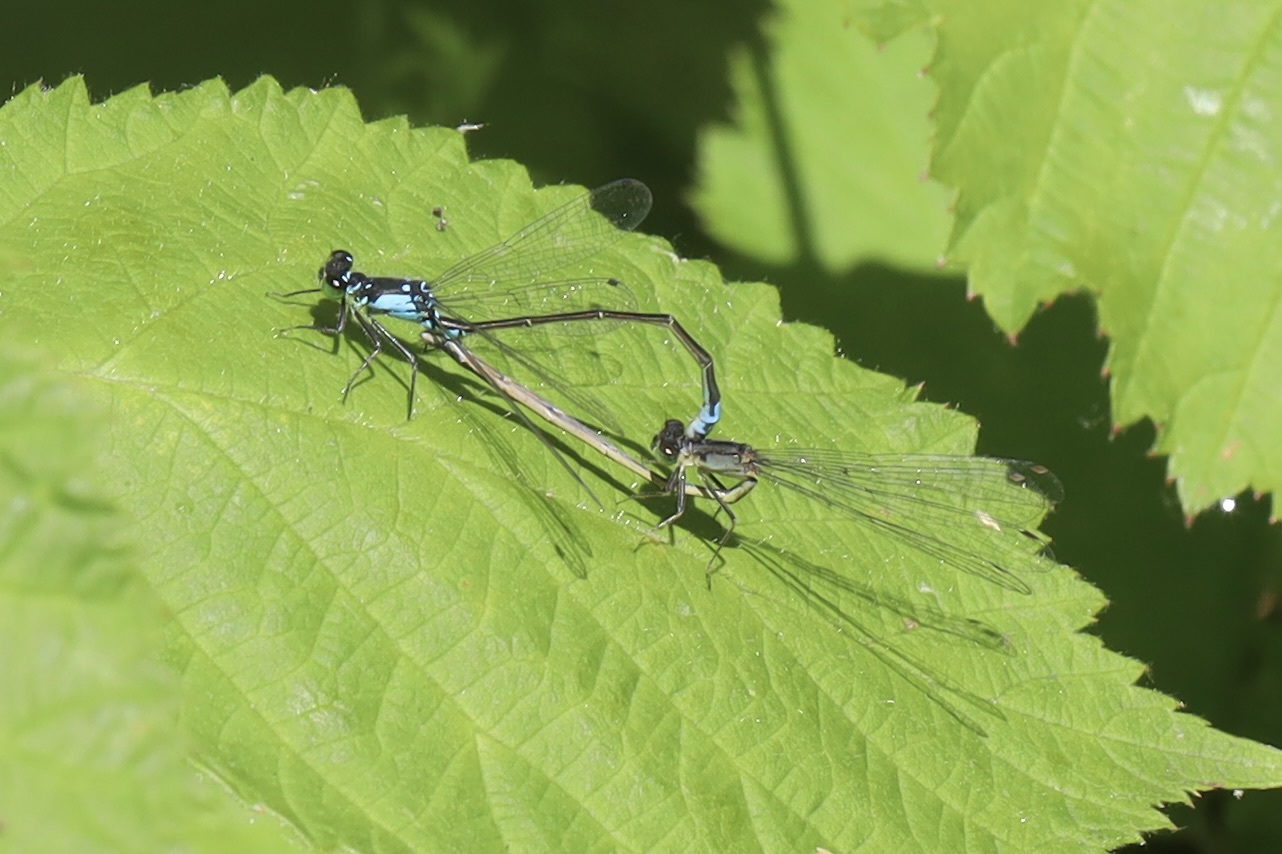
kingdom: Animalia
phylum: Arthropoda
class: Insecta
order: Odonata
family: Coenagrionidae
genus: Ischnura
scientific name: Ischnura cervula
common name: Pacific forktail
